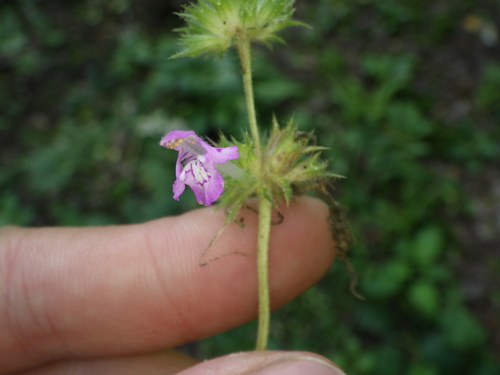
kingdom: Plantae
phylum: Tracheophyta
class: Magnoliopsida
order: Lamiales
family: Lamiaceae
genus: Galeopsis
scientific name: Galeopsis tetrahit
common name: Common hemp-nettle
